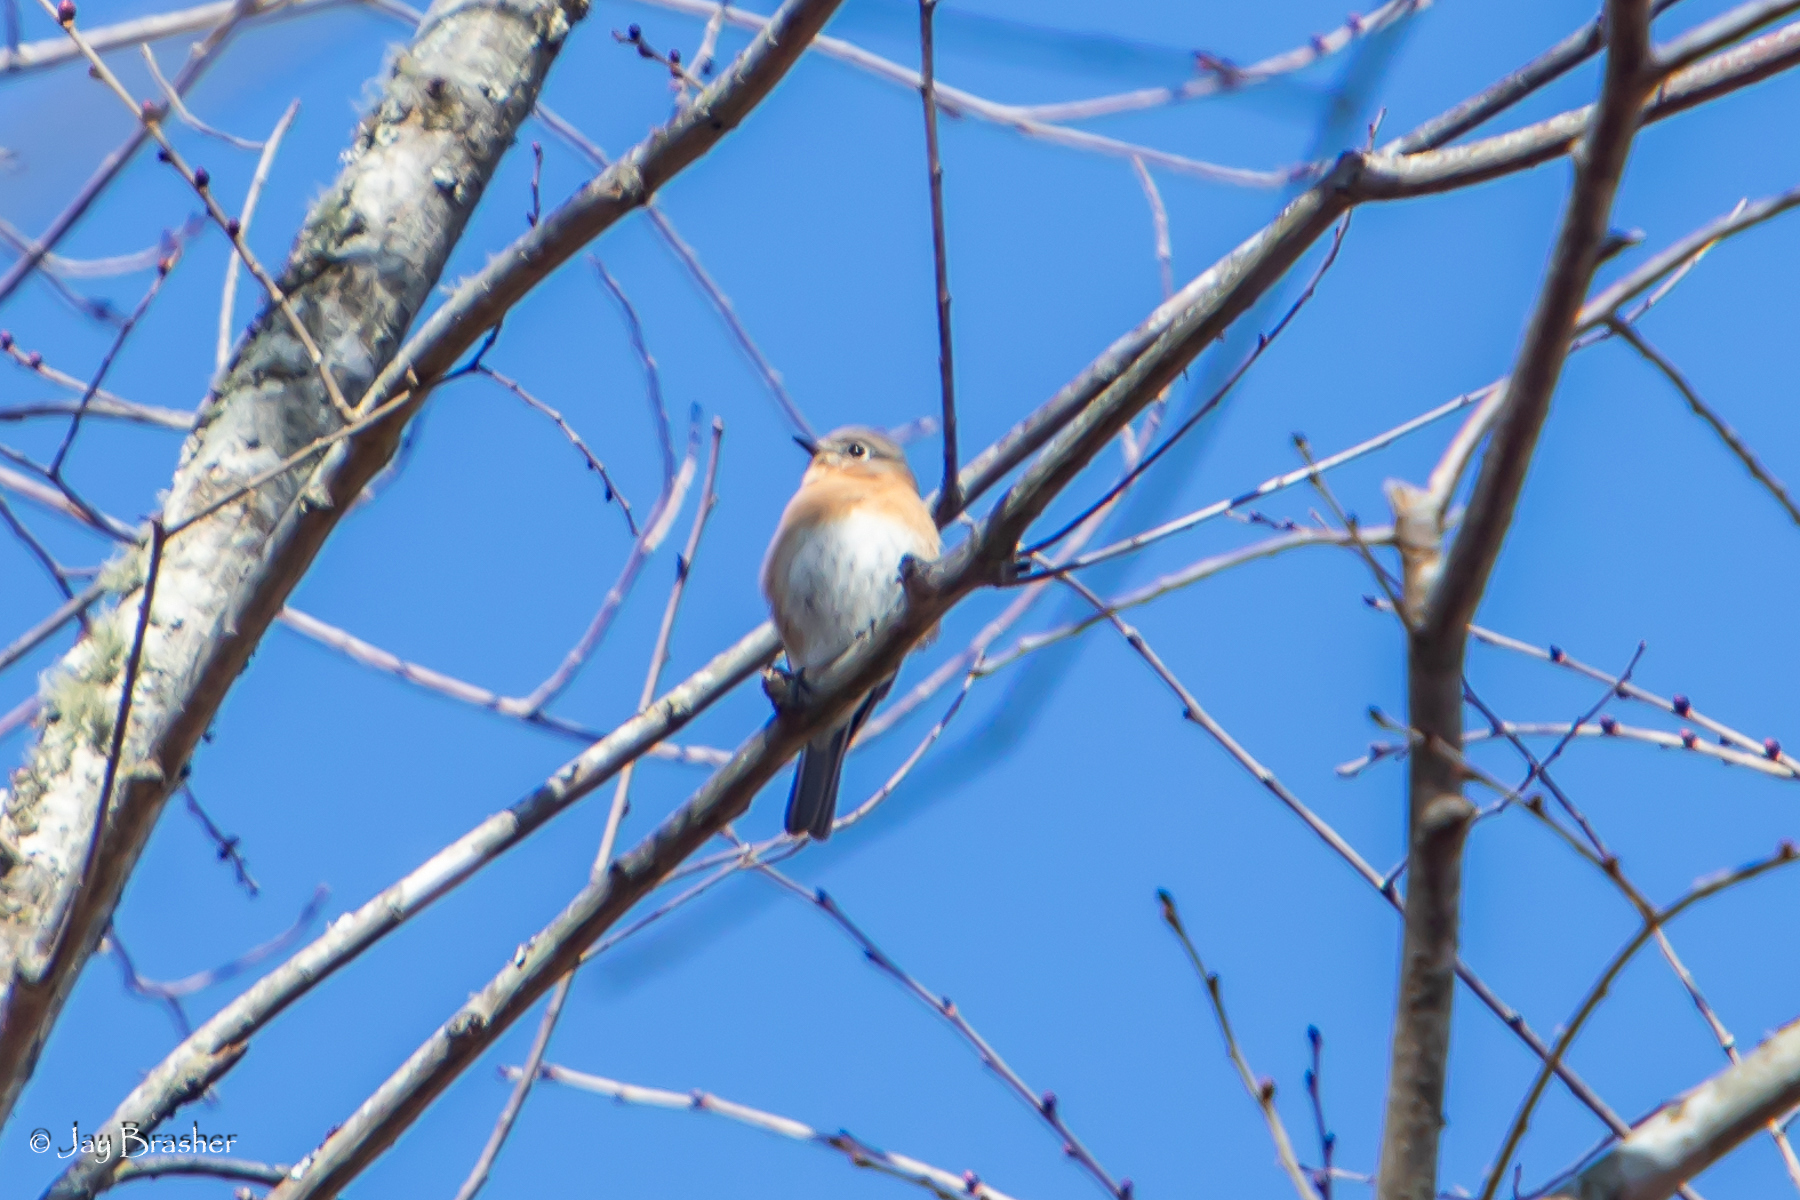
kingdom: Animalia
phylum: Chordata
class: Aves
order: Passeriformes
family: Turdidae
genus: Sialia
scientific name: Sialia sialis
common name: Eastern bluebird
